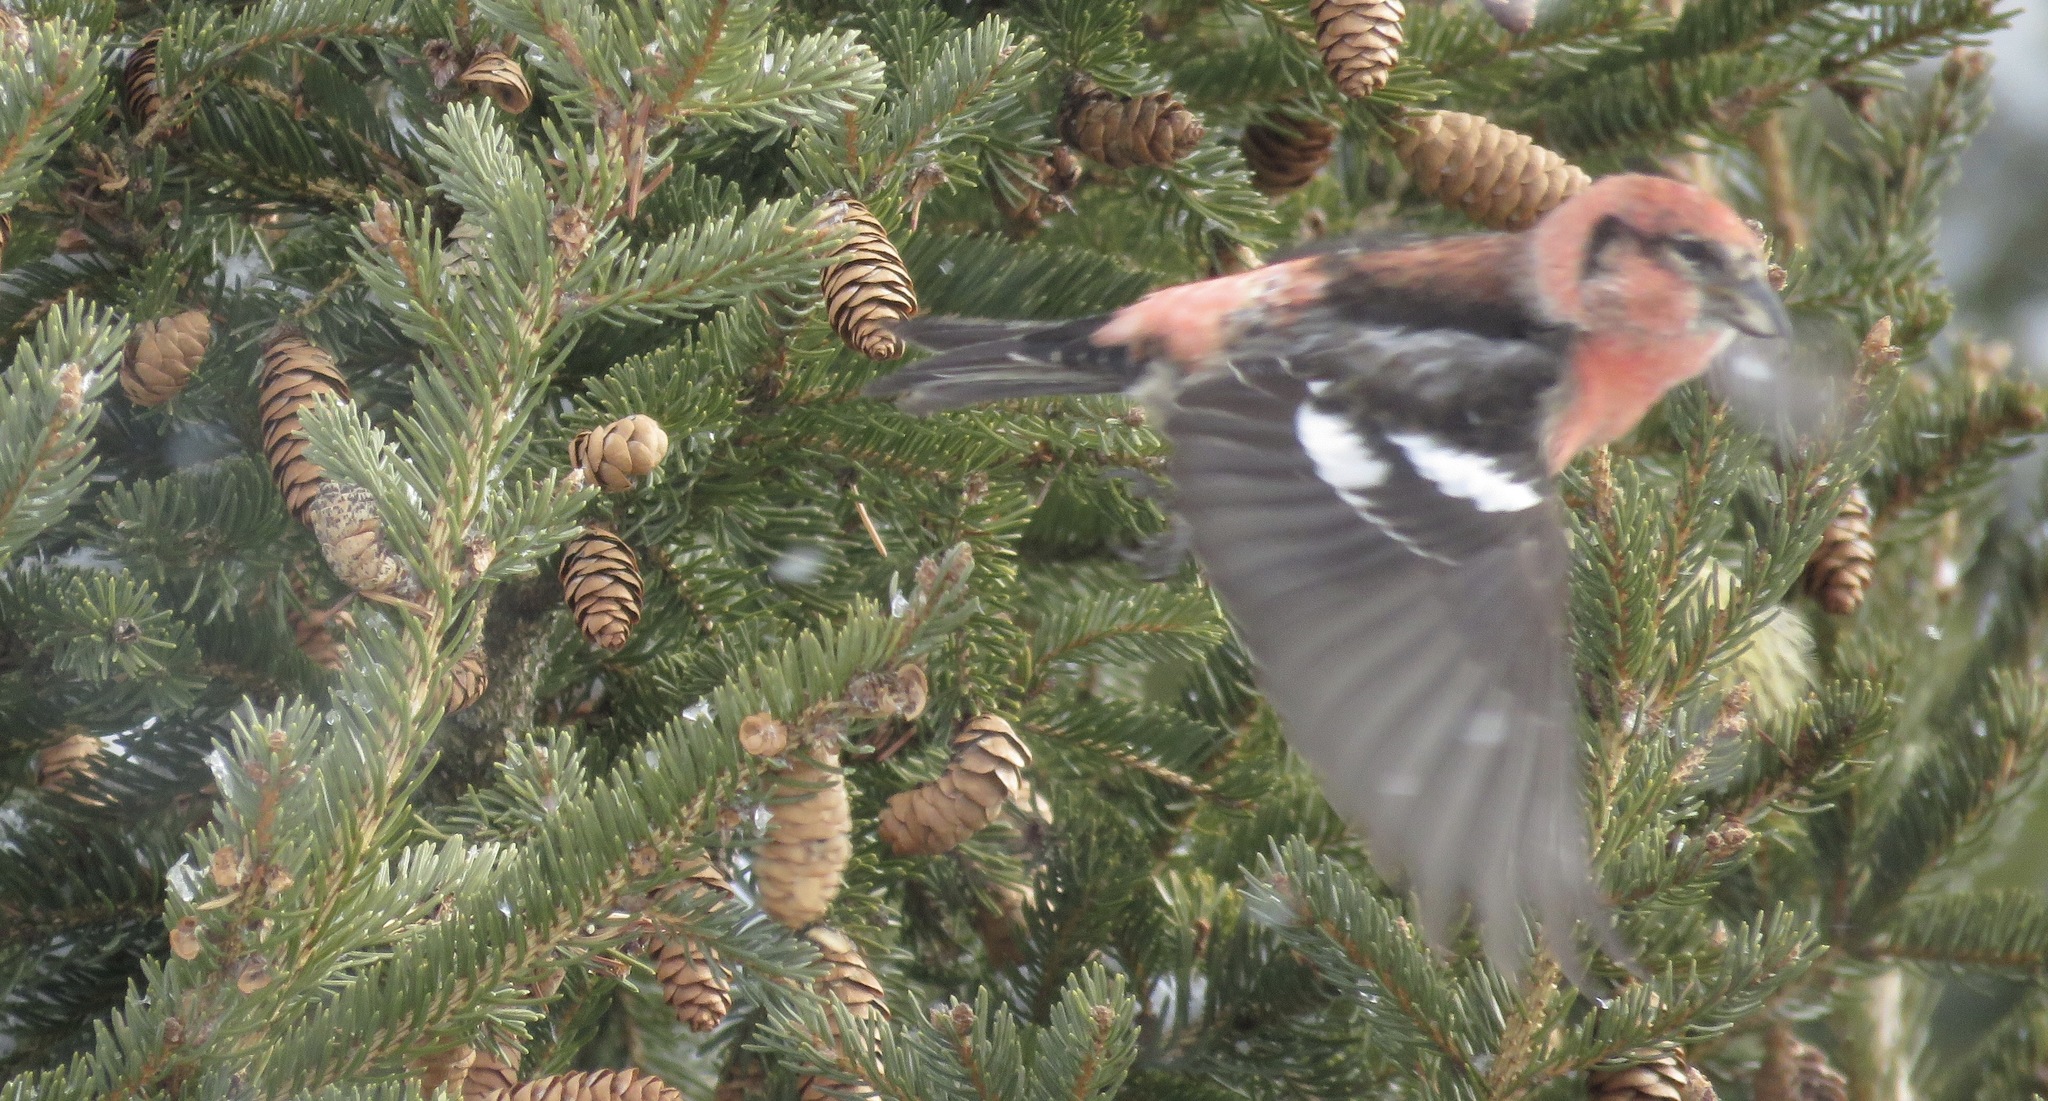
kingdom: Animalia
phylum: Chordata
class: Aves
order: Passeriformes
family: Fringillidae
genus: Loxia
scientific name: Loxia leucoptera
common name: Two-barred crossbill
